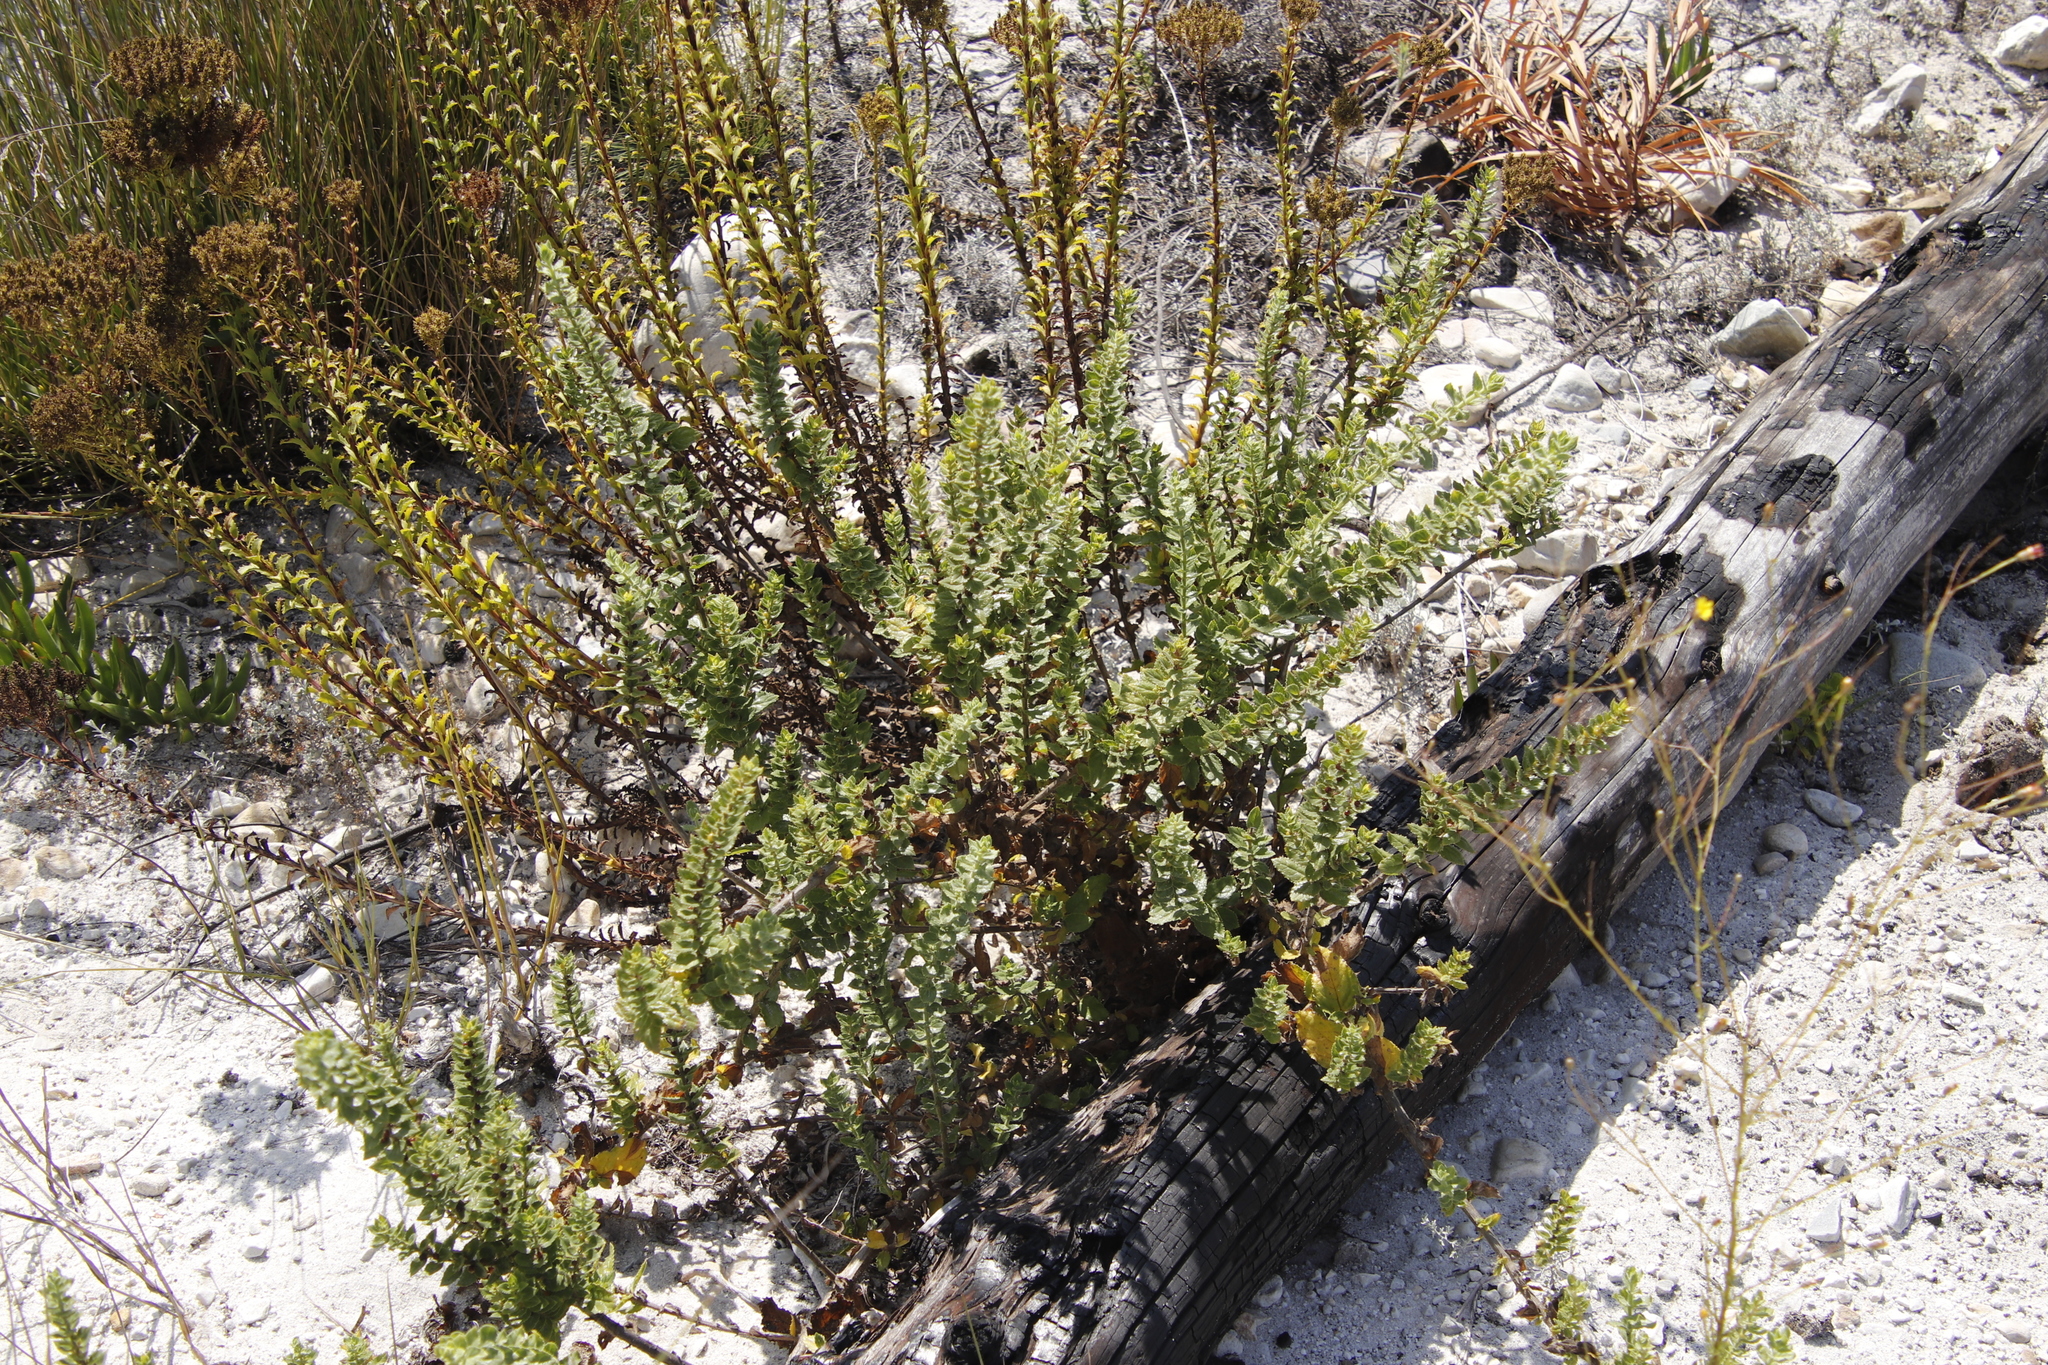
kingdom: Plantae
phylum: Tracheophyta
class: Magnoliopsida
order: Lamiales
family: Scrophulariaceae
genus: Oftia
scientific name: Oftia africana
